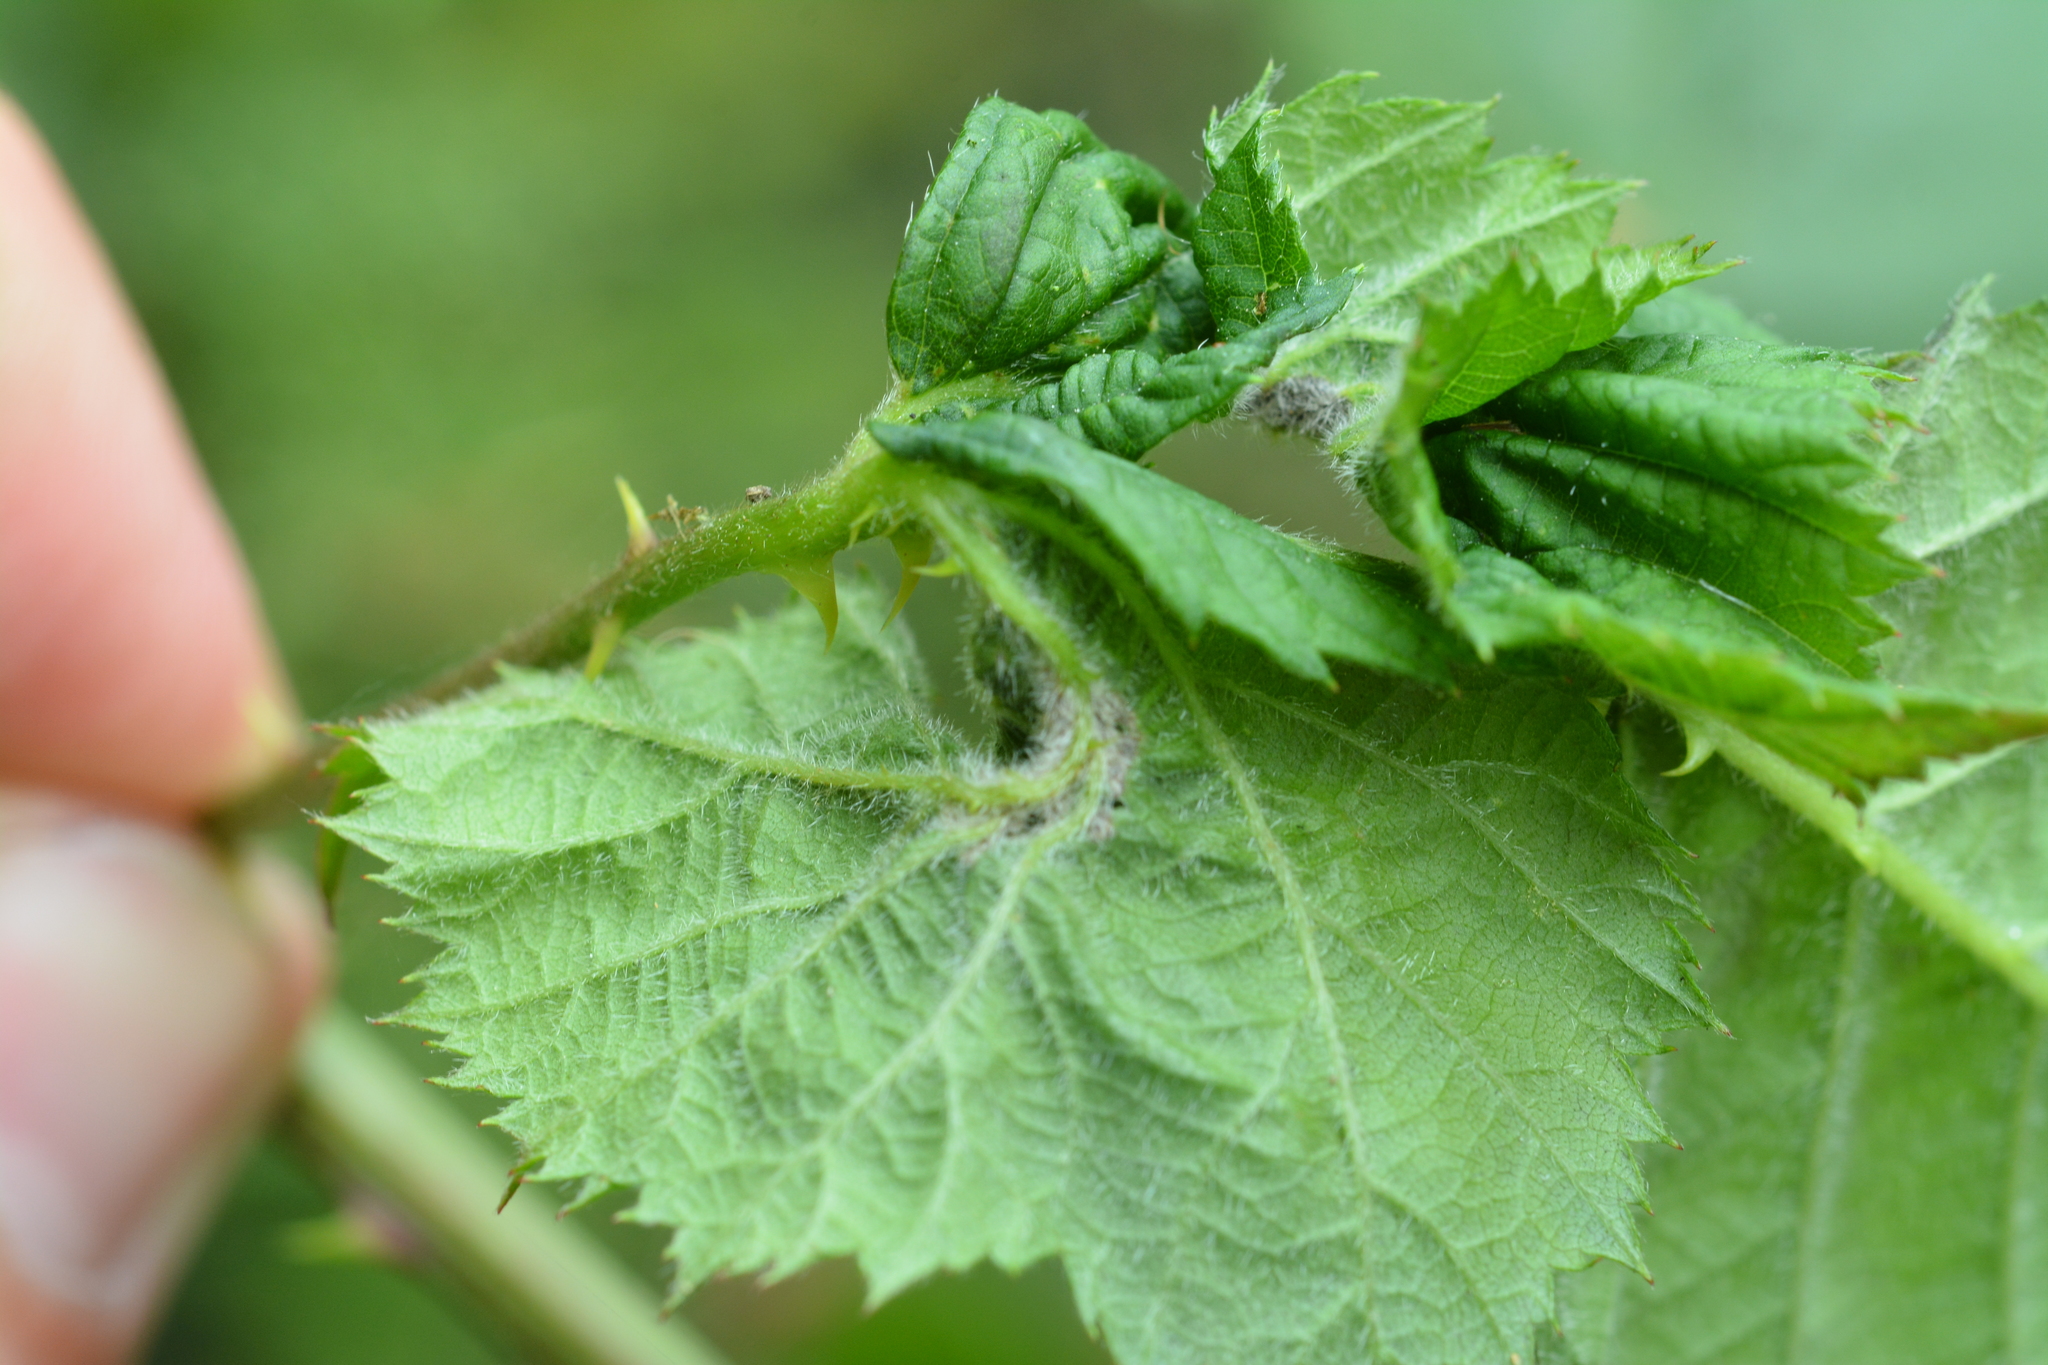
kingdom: Animalia
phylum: Arthropoda
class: Insecta
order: Diptera
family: Cecidomyiidae
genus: Dasineura
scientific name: Dasineura plicatrix
